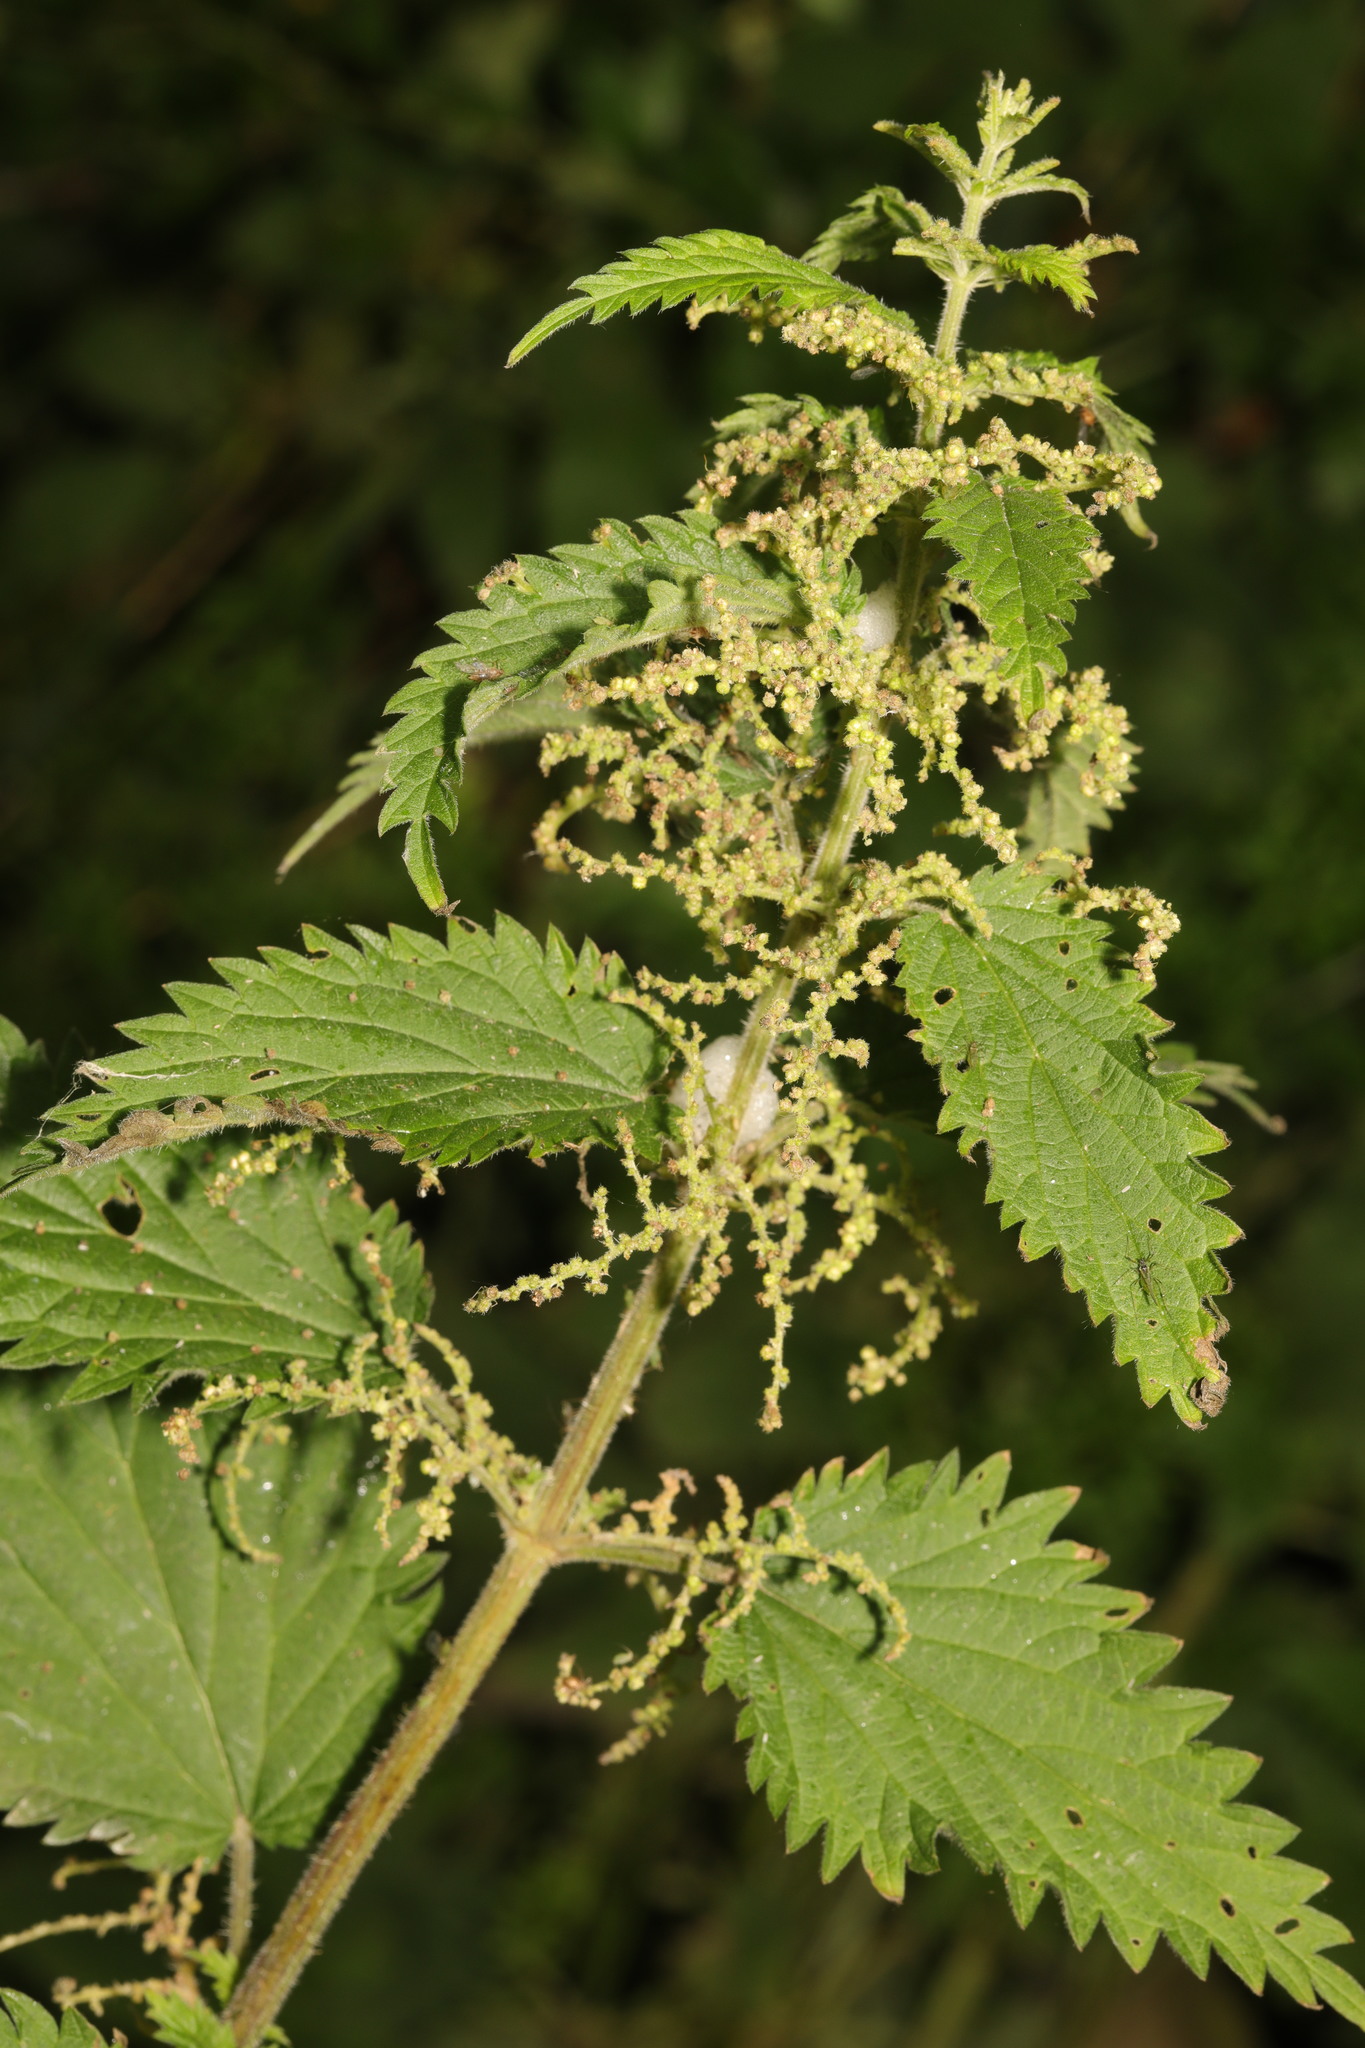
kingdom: Plantae
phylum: Tracheophyta
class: Magnoliopsida
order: Rosales
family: Urticaceae
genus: Urtica
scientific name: Urtica dioica
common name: Common nettle
